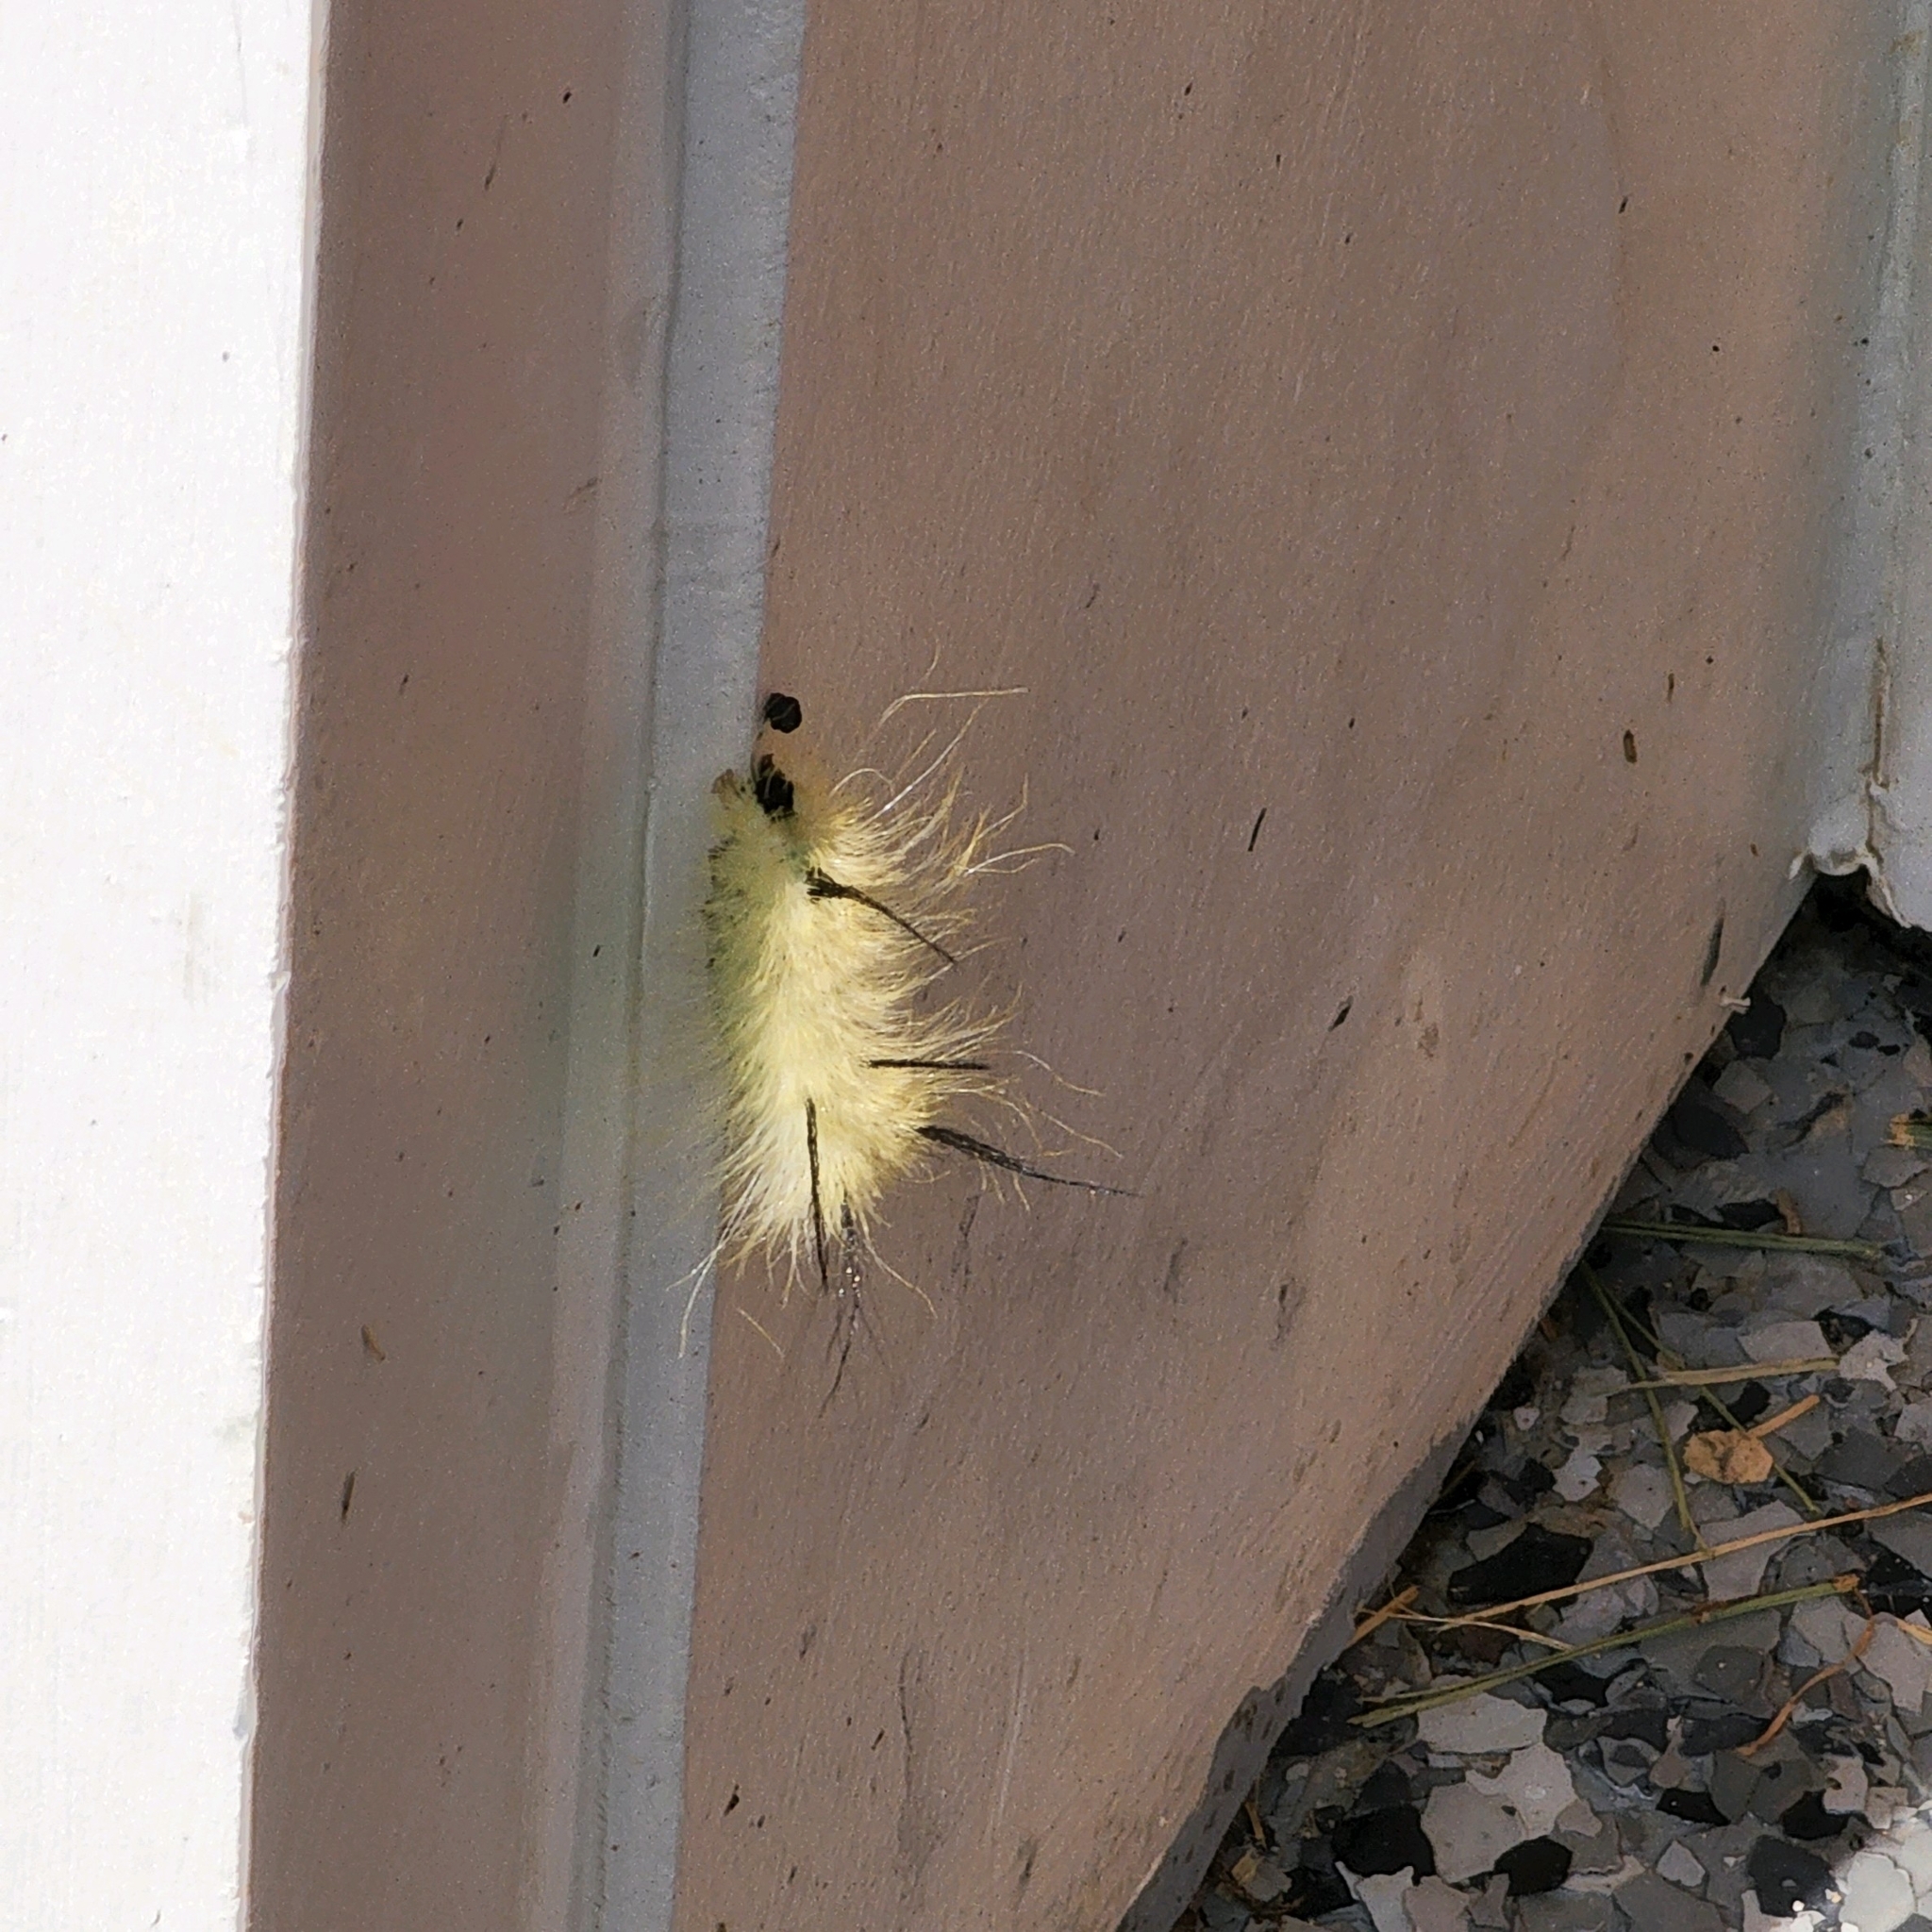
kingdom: Animalia
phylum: Arthropoda
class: Insecta
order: Lepidoptera
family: Noctuidae
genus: Acronicta
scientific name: Acronicta americana
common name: American dagger
